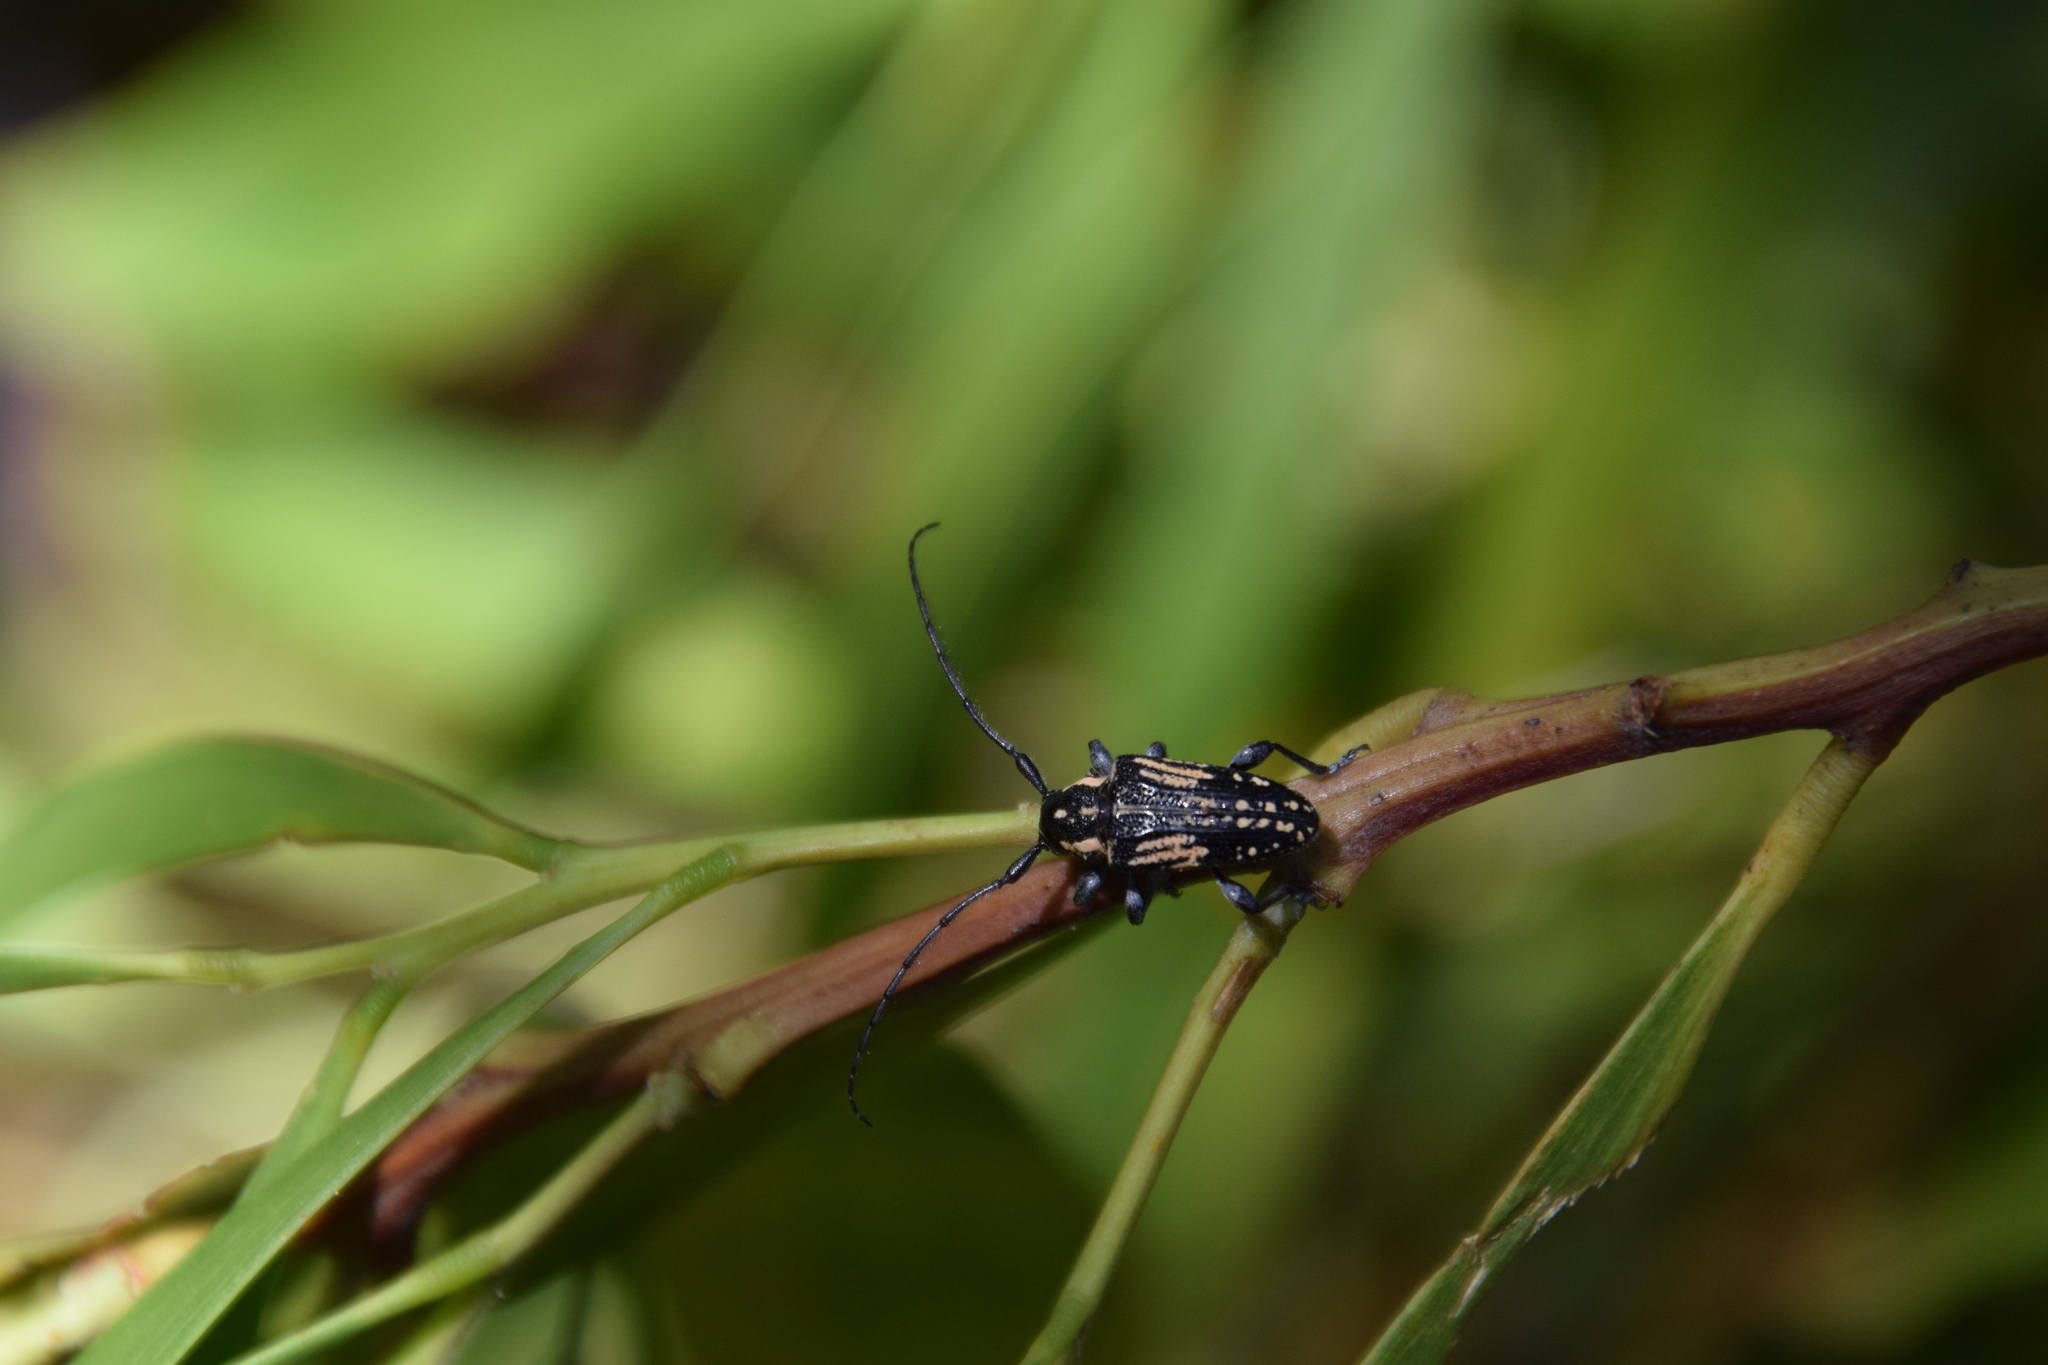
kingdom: Animalia
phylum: Arthropoda
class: Insecta
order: Coleoptera
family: Cerambycidae
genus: Hebecerus
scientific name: Hebecerus crocogaster
